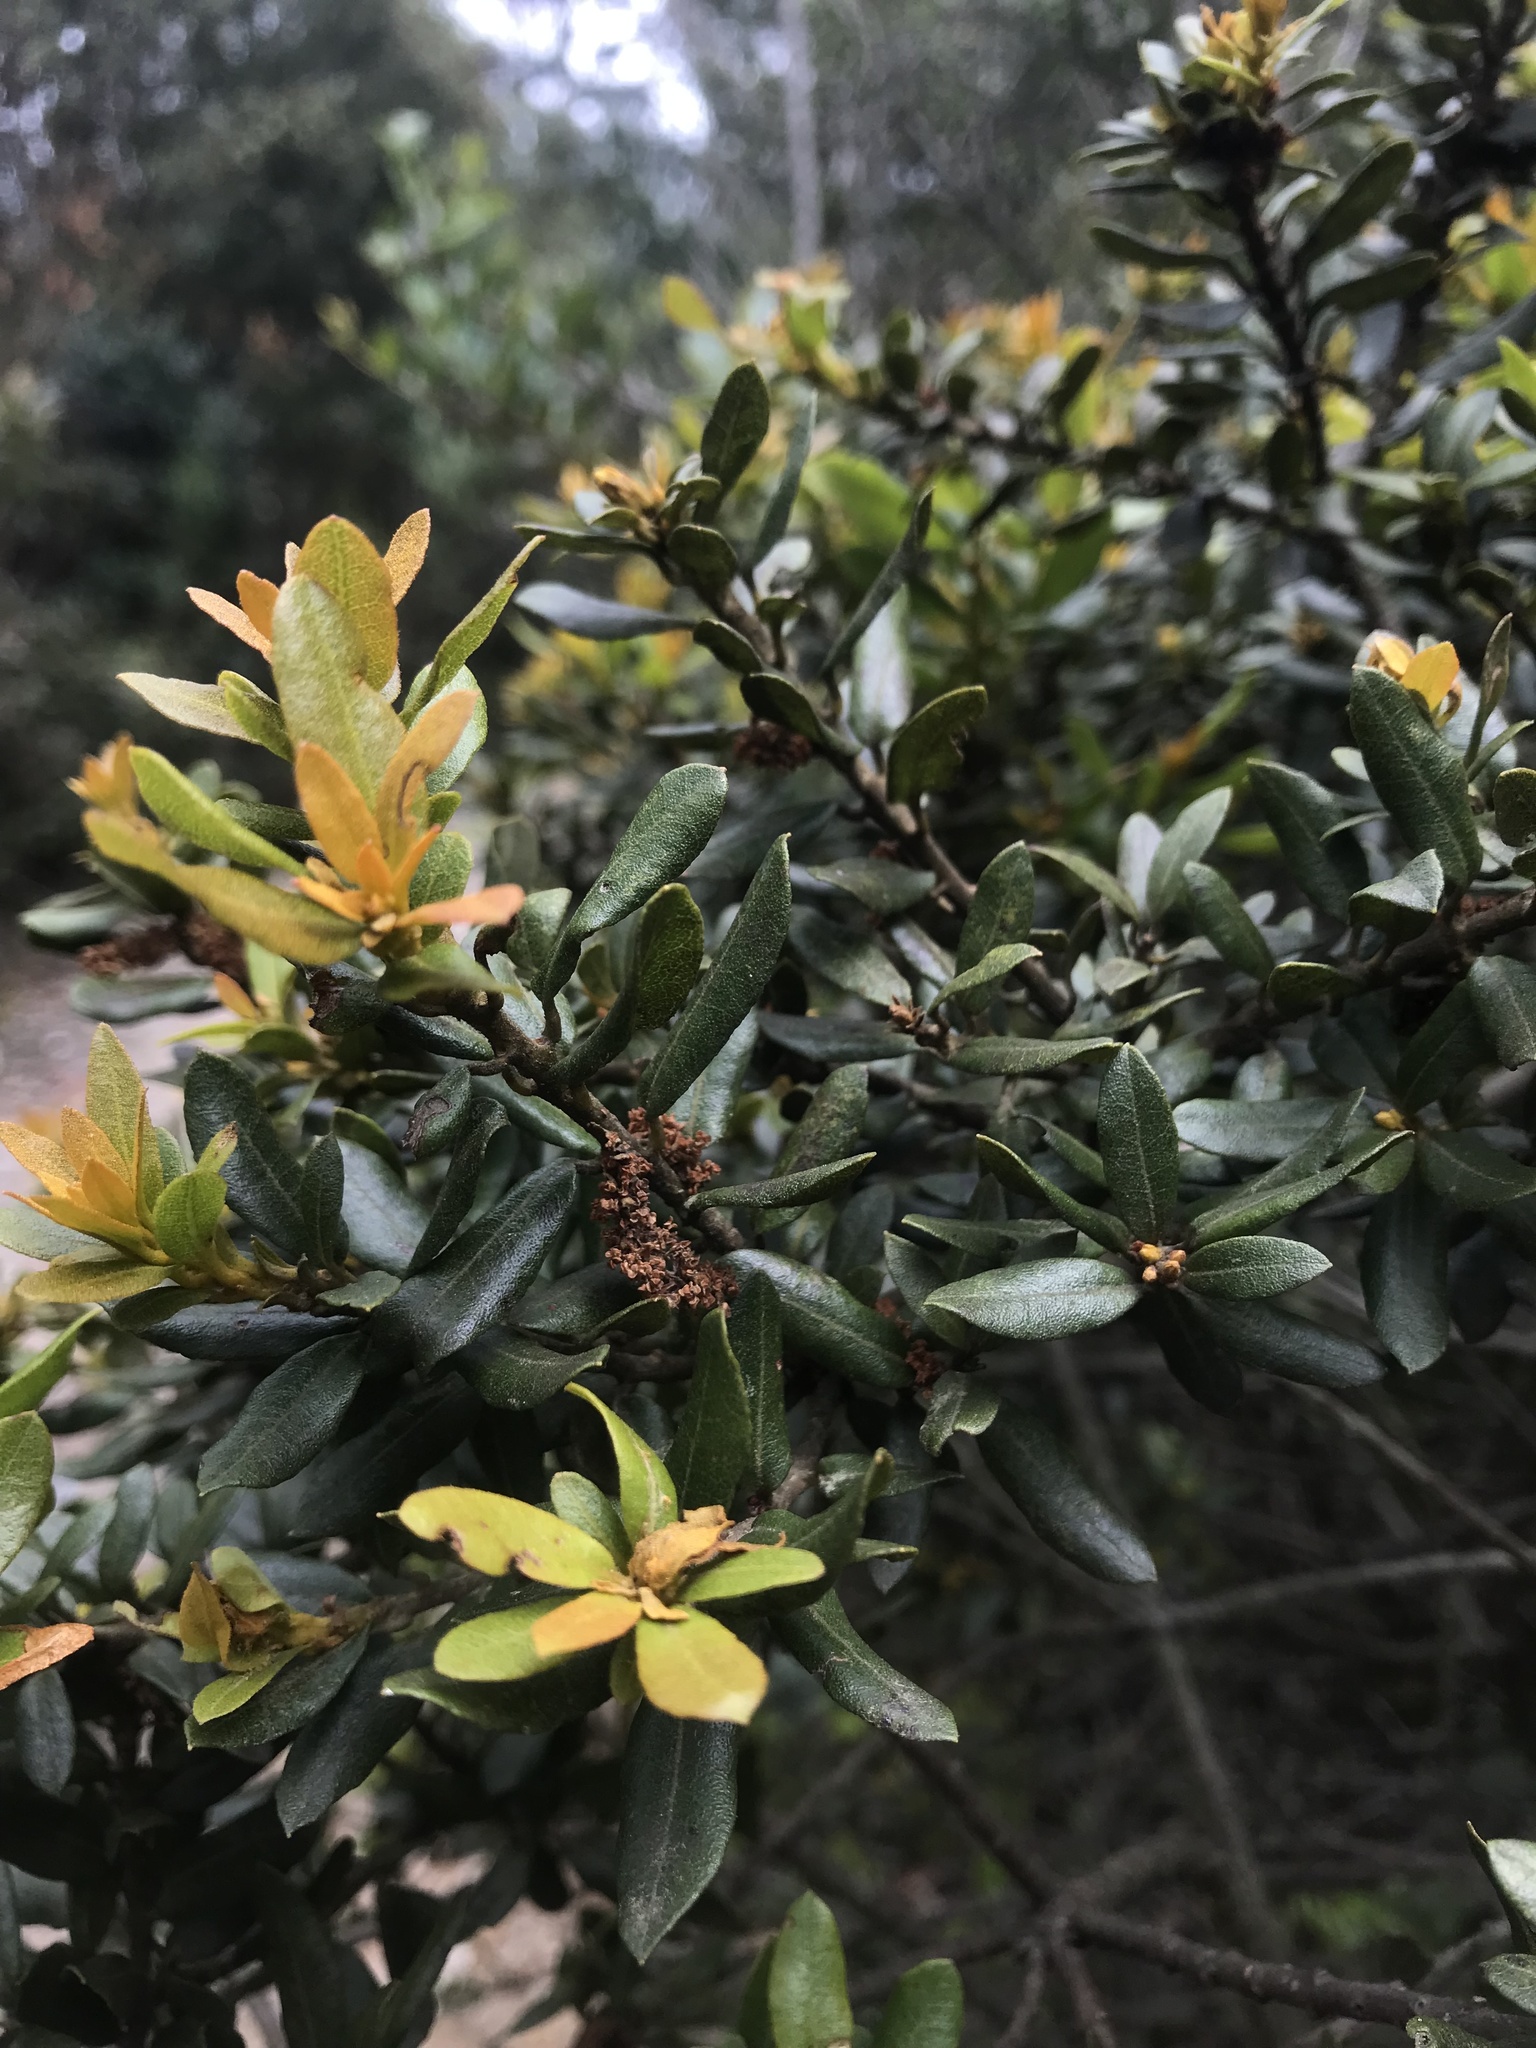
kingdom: Plantae
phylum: Tracheophyta
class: Magnoliopsida
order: Fagales
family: Myricaceae
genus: Morella
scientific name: Morella parvifolia
